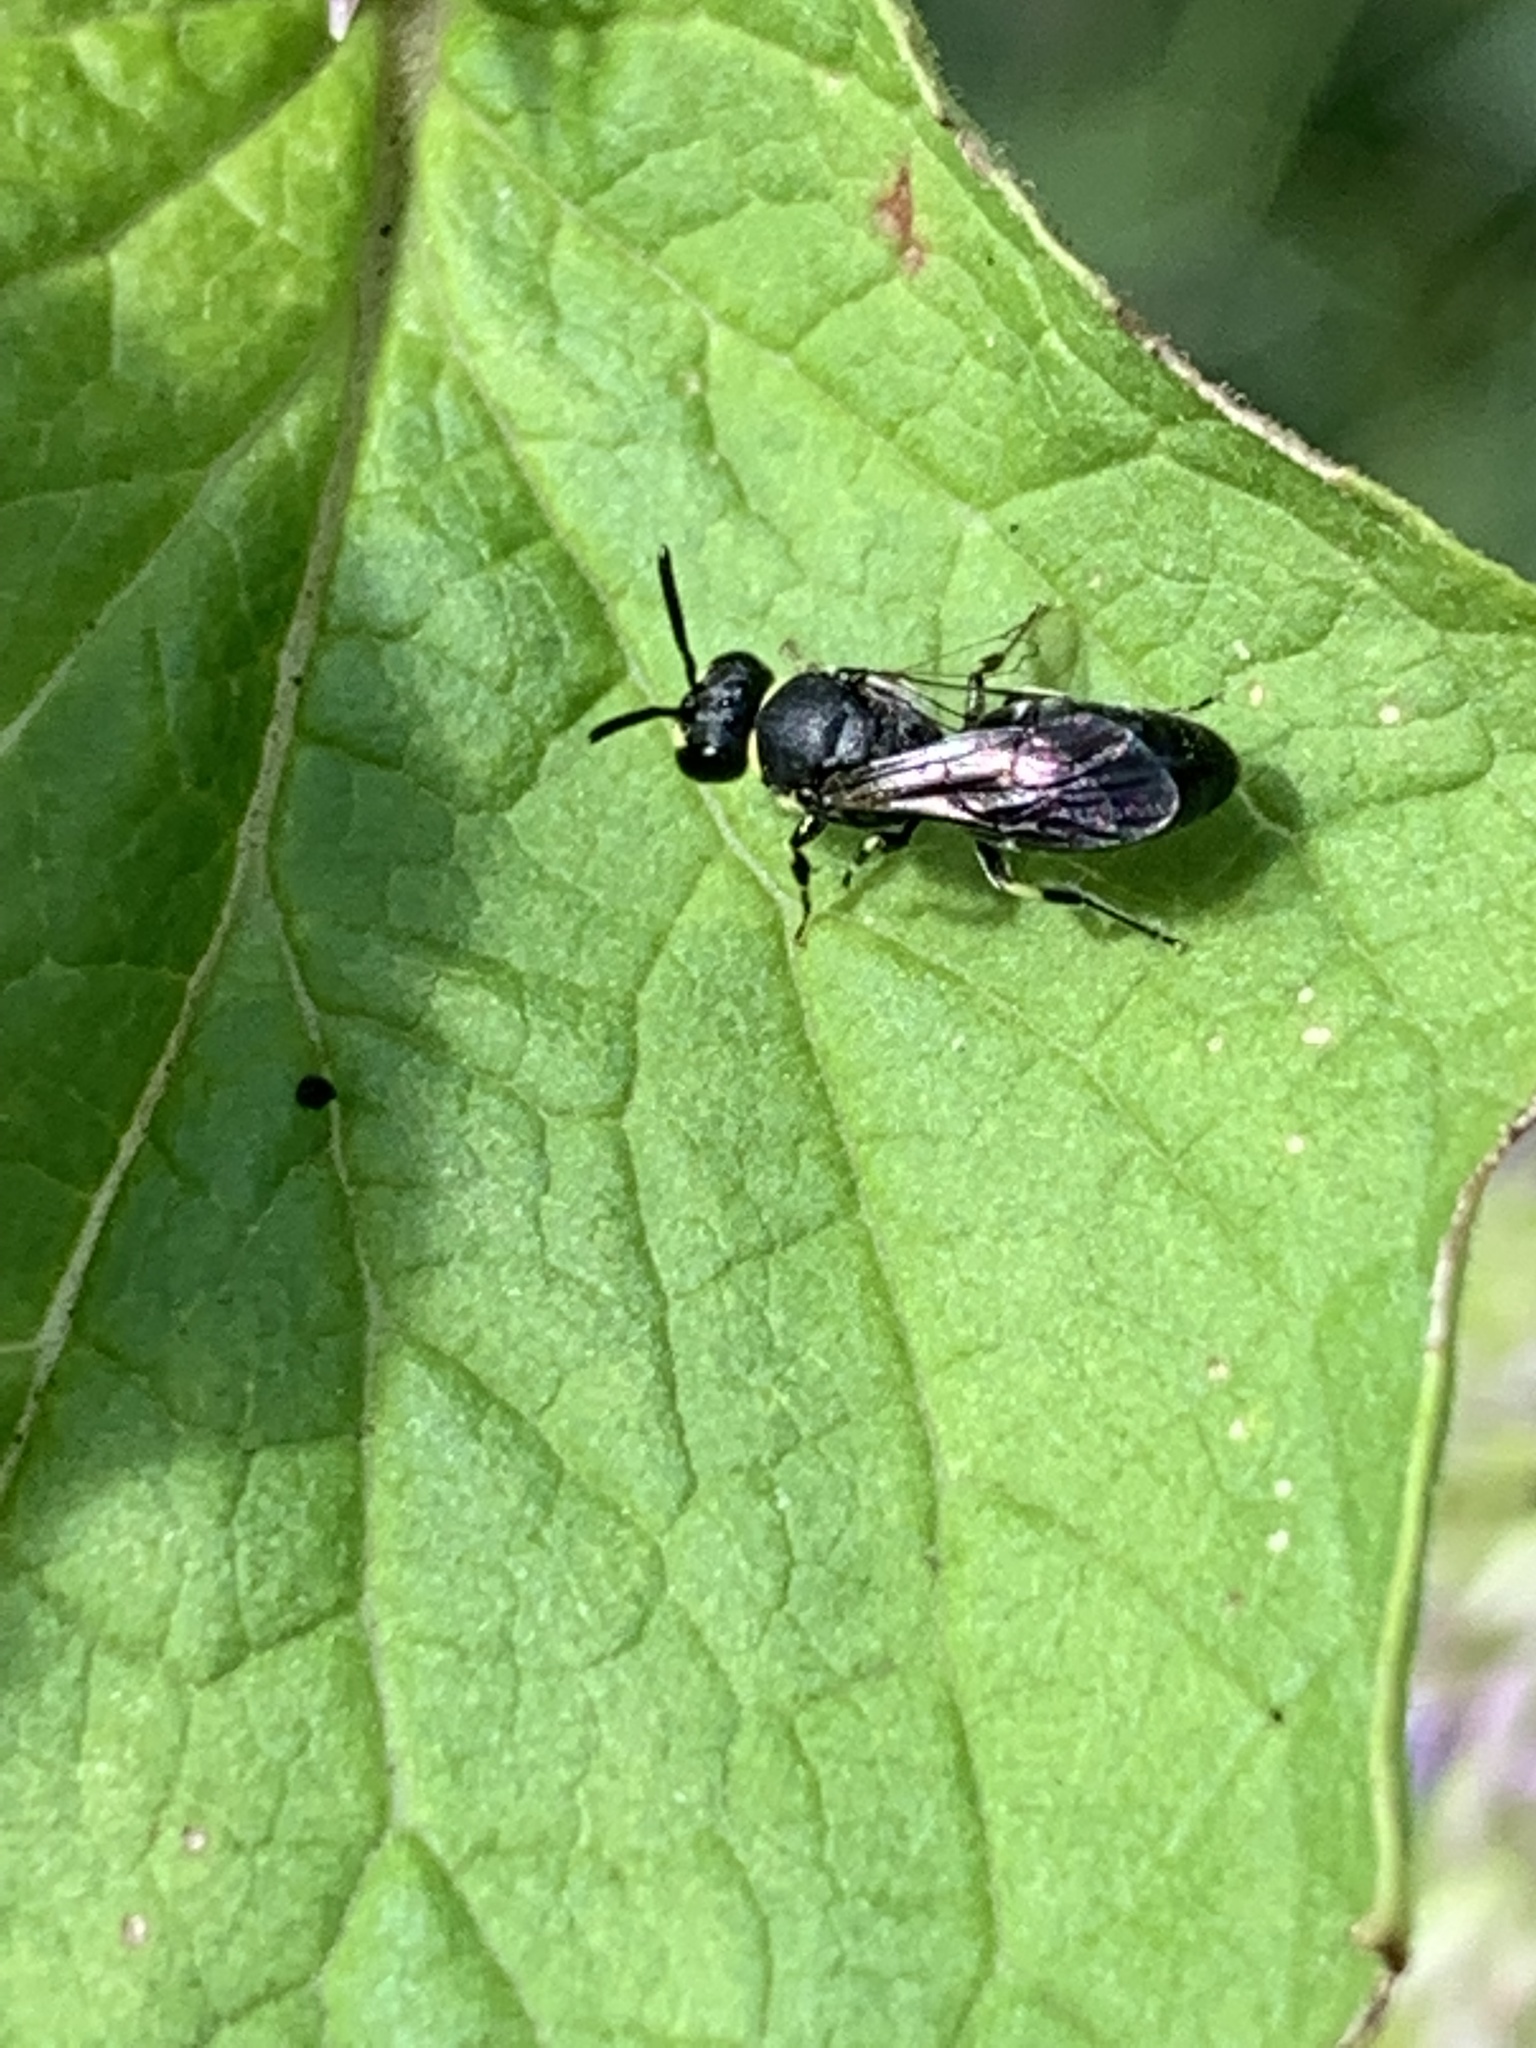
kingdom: Animalia
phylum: Arthropoda
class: Insecta
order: Hymenoptera
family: Colletidae
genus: Hylaeus
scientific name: Hylaeus modestus
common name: Yellow-faced bee
